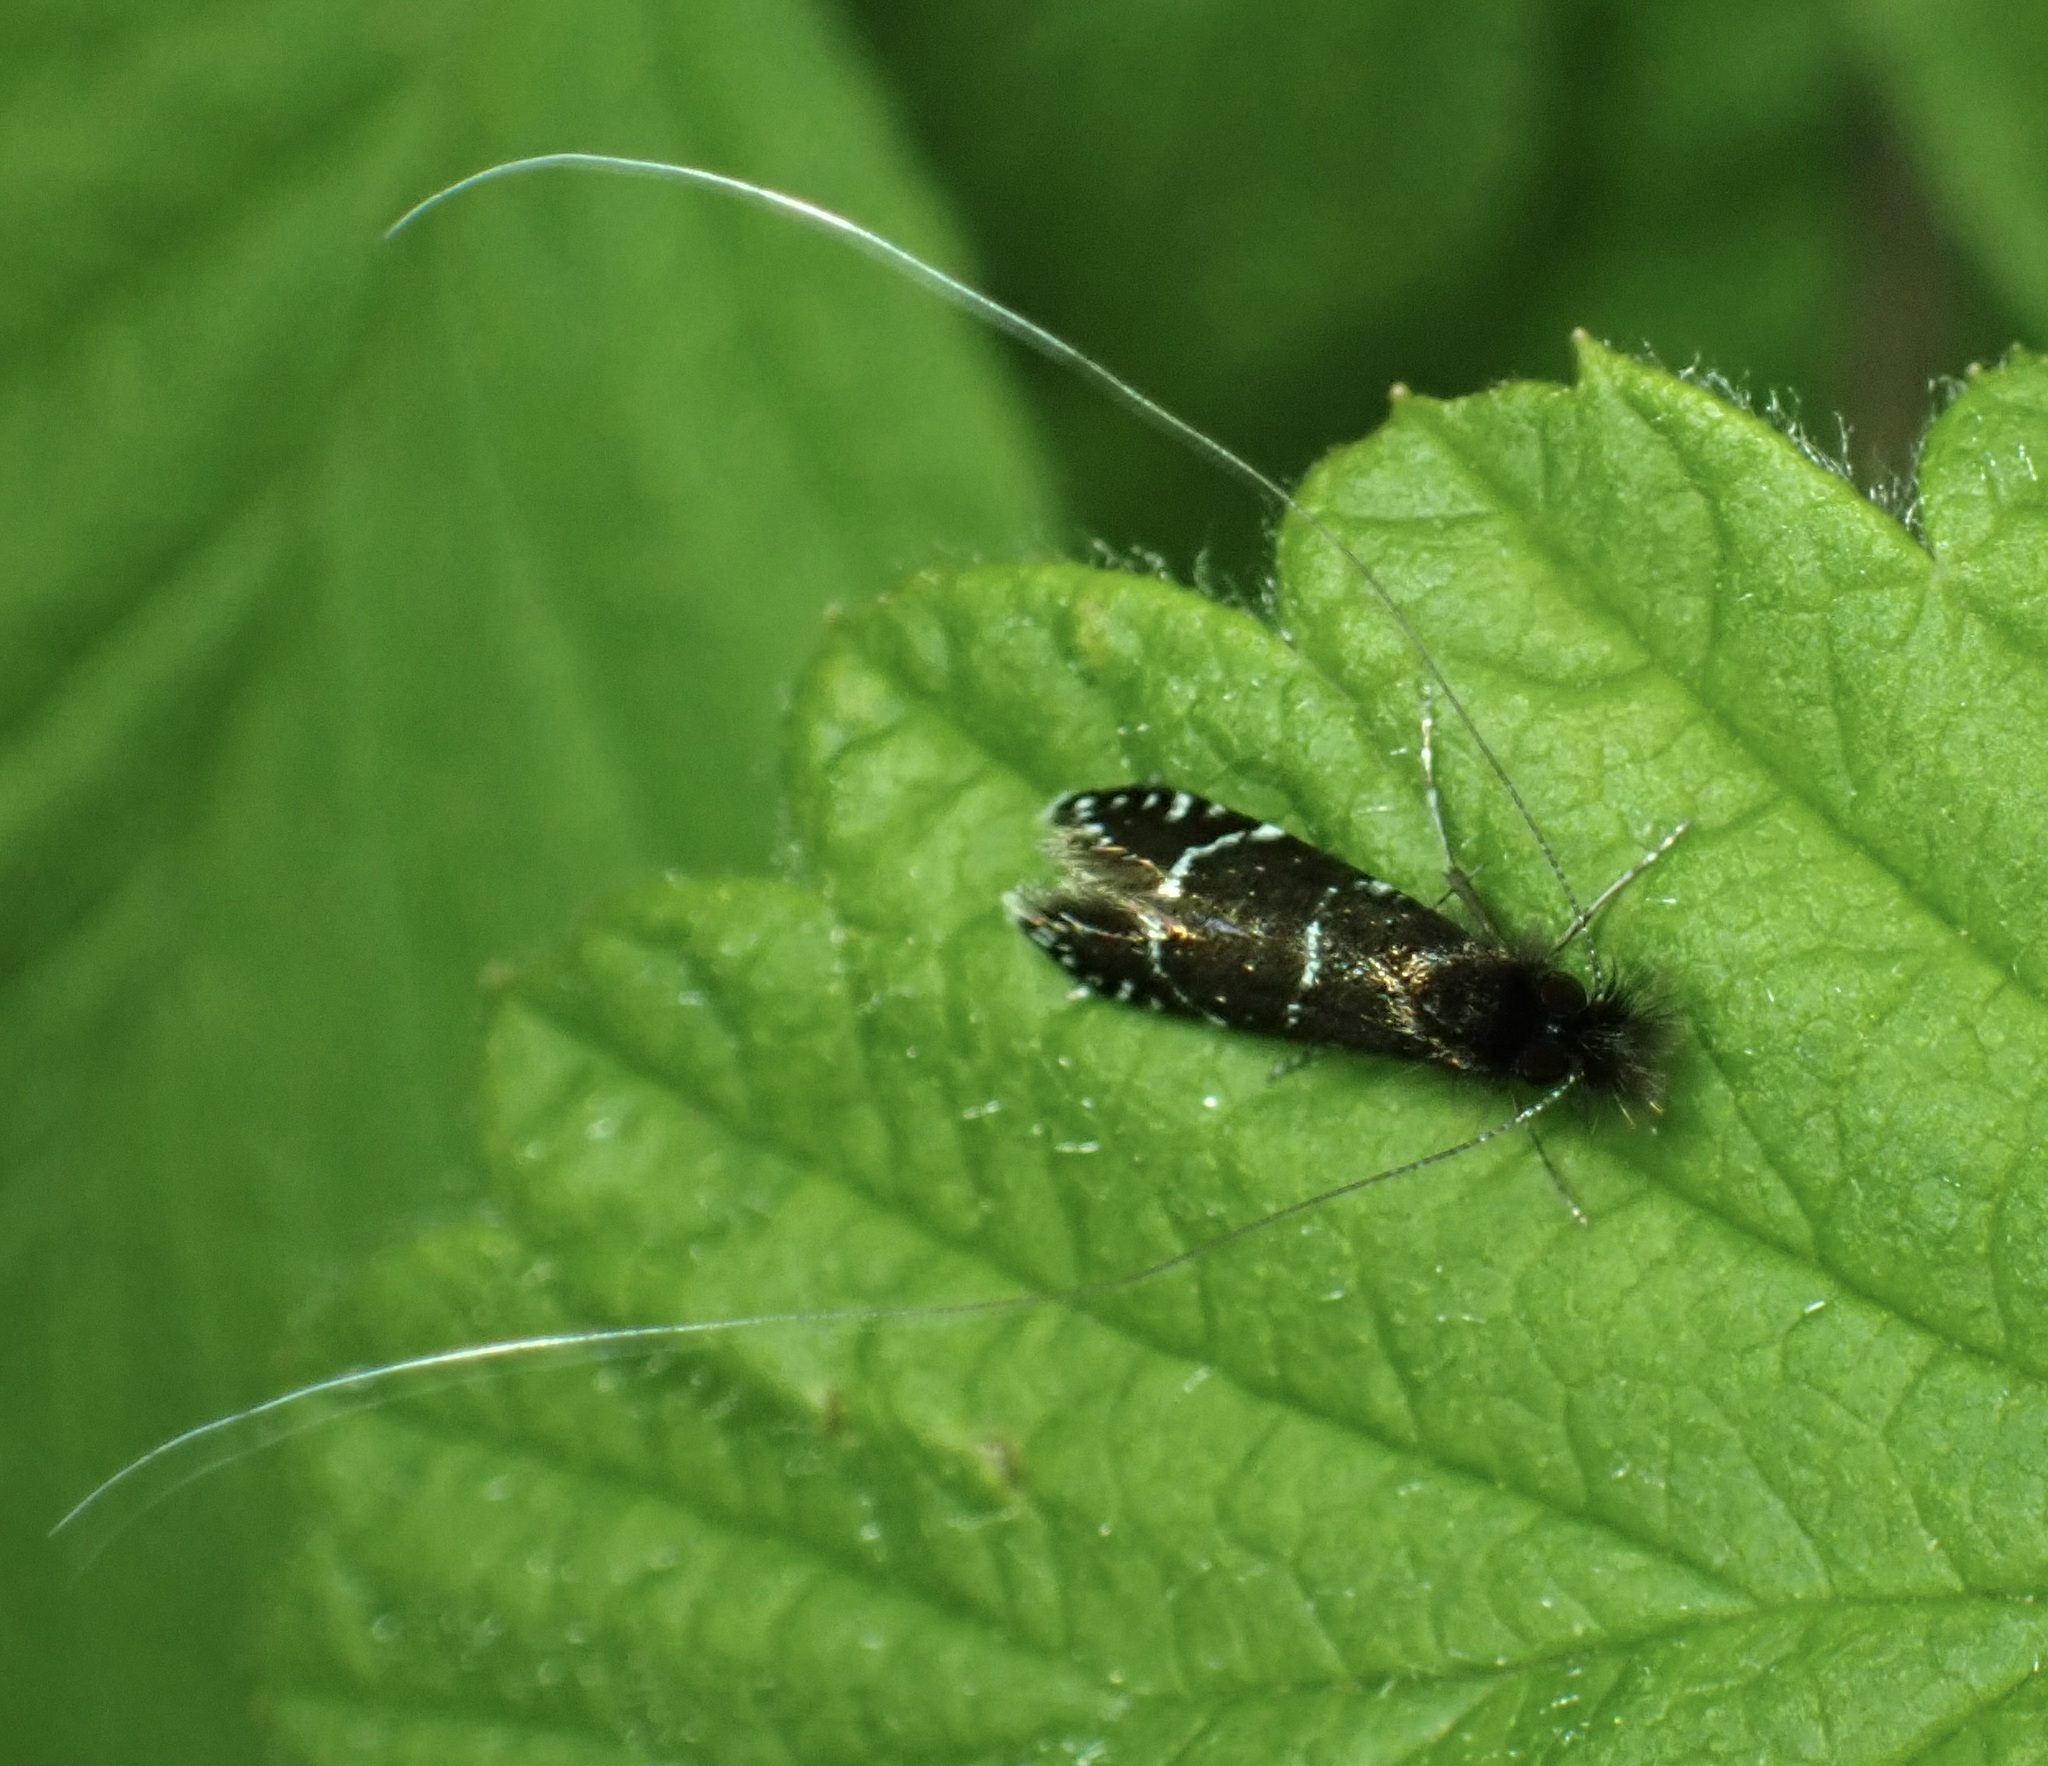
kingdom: Animalia
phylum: Arthropoda
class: Insecta
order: Lepidoptera
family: Adelidae
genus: Adela
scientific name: Adela septentrionella
